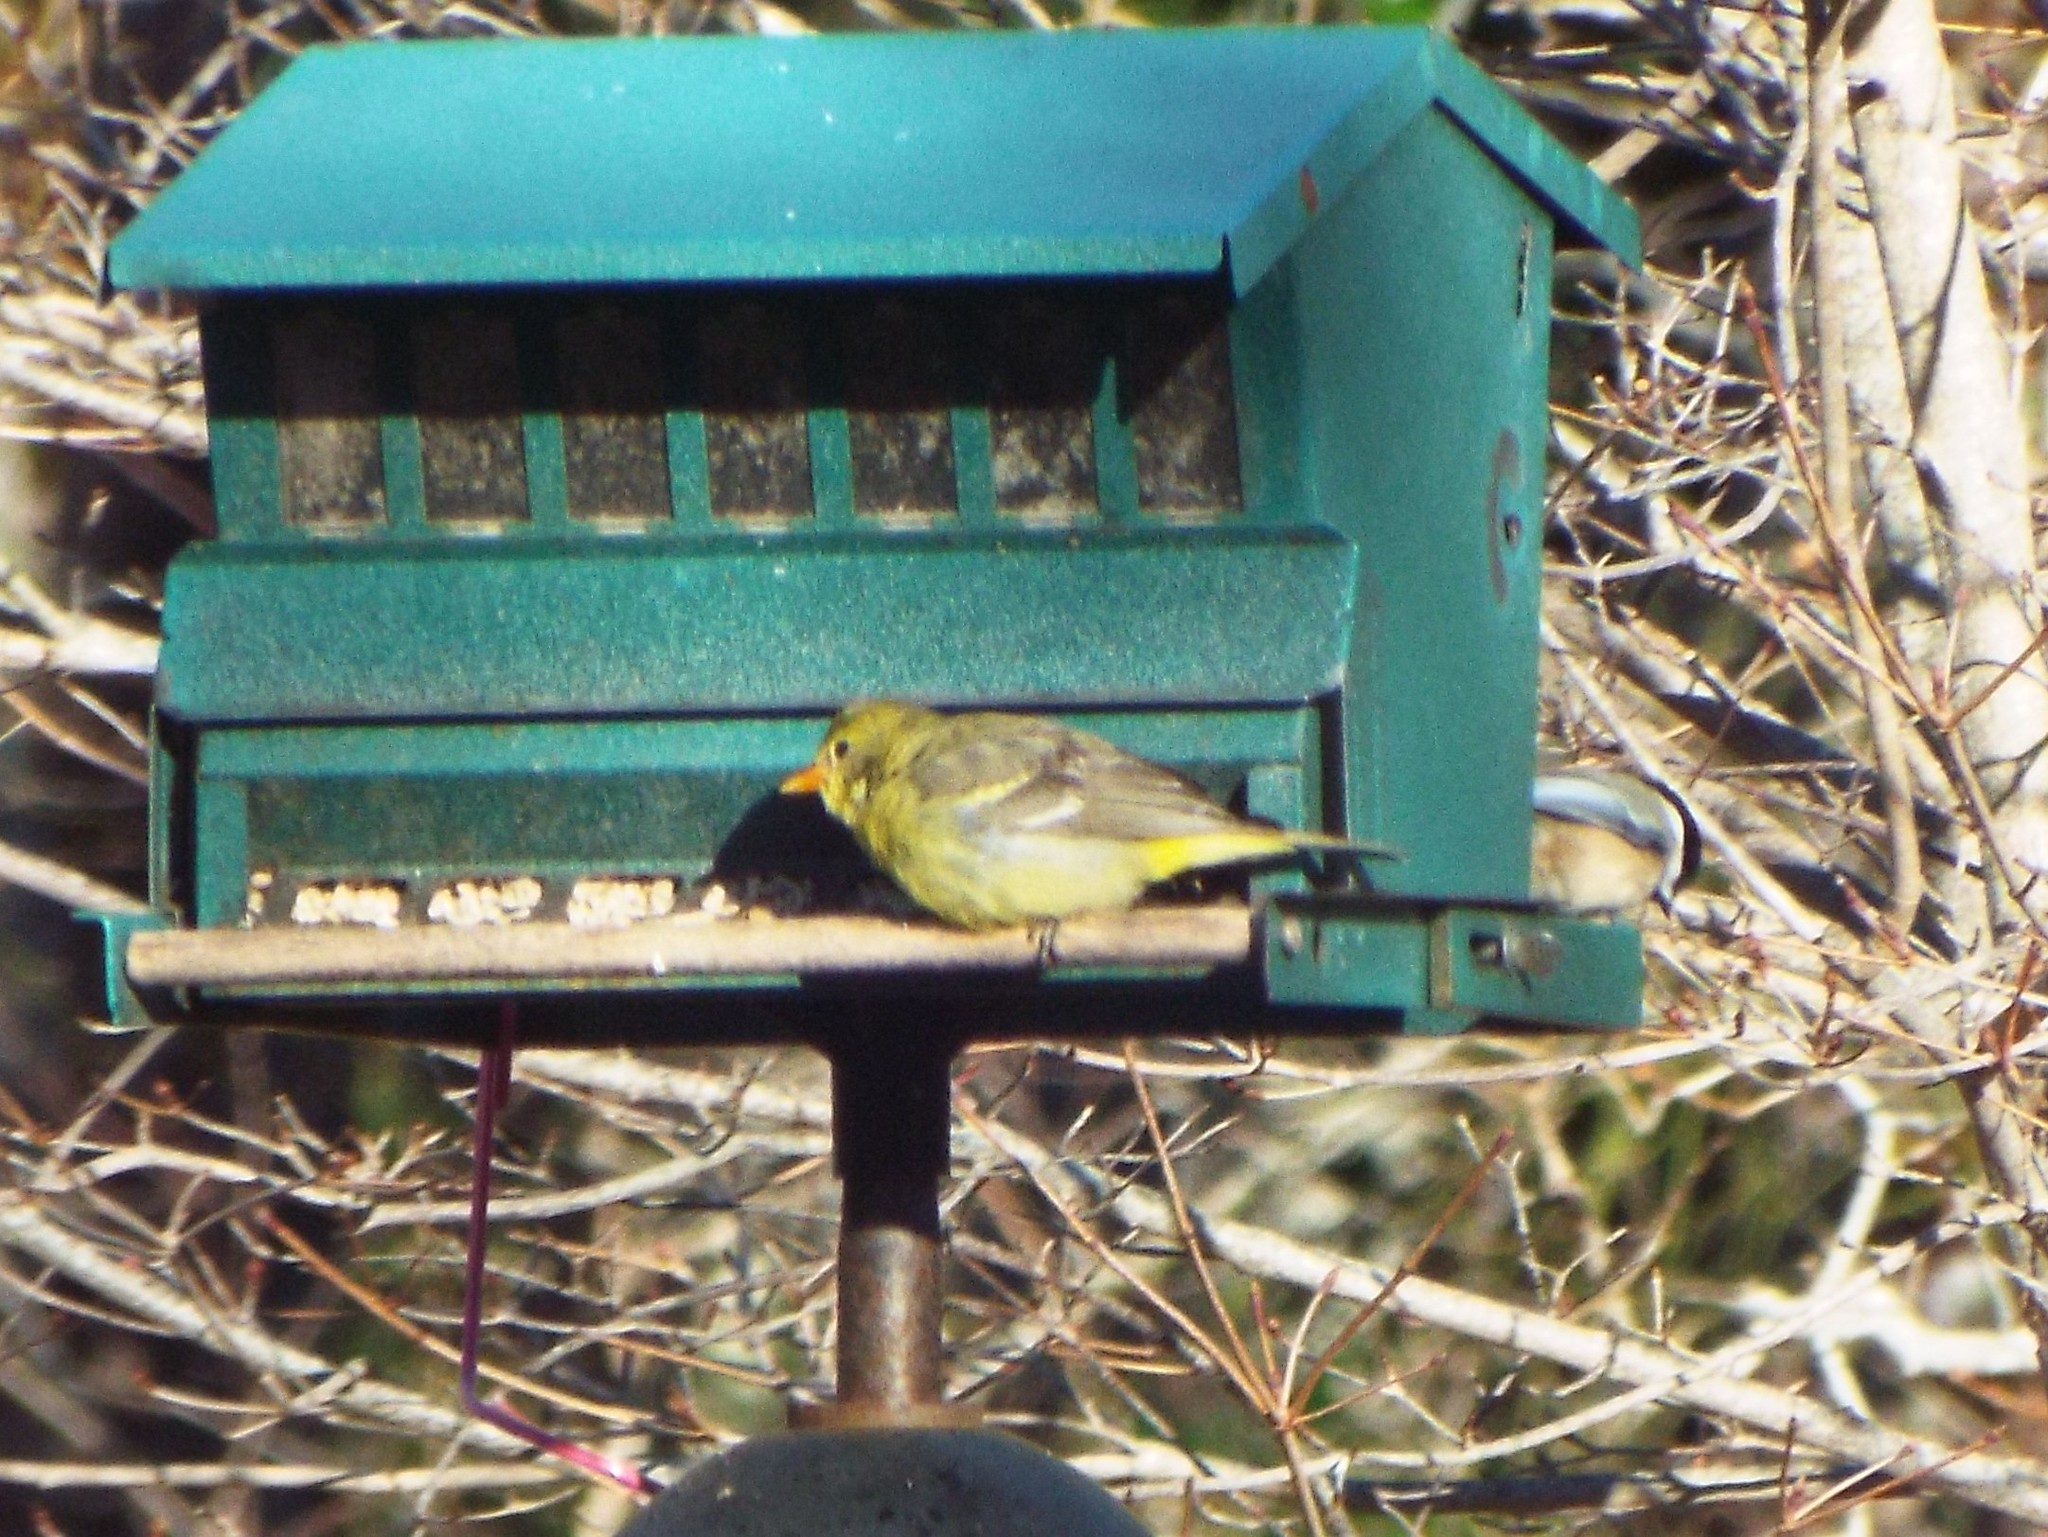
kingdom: Animalia
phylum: Chordata
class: Aves
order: Passeriformes
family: Cardinalidae
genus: Piranga
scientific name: Piranga ludoviciana
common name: Western tanager
